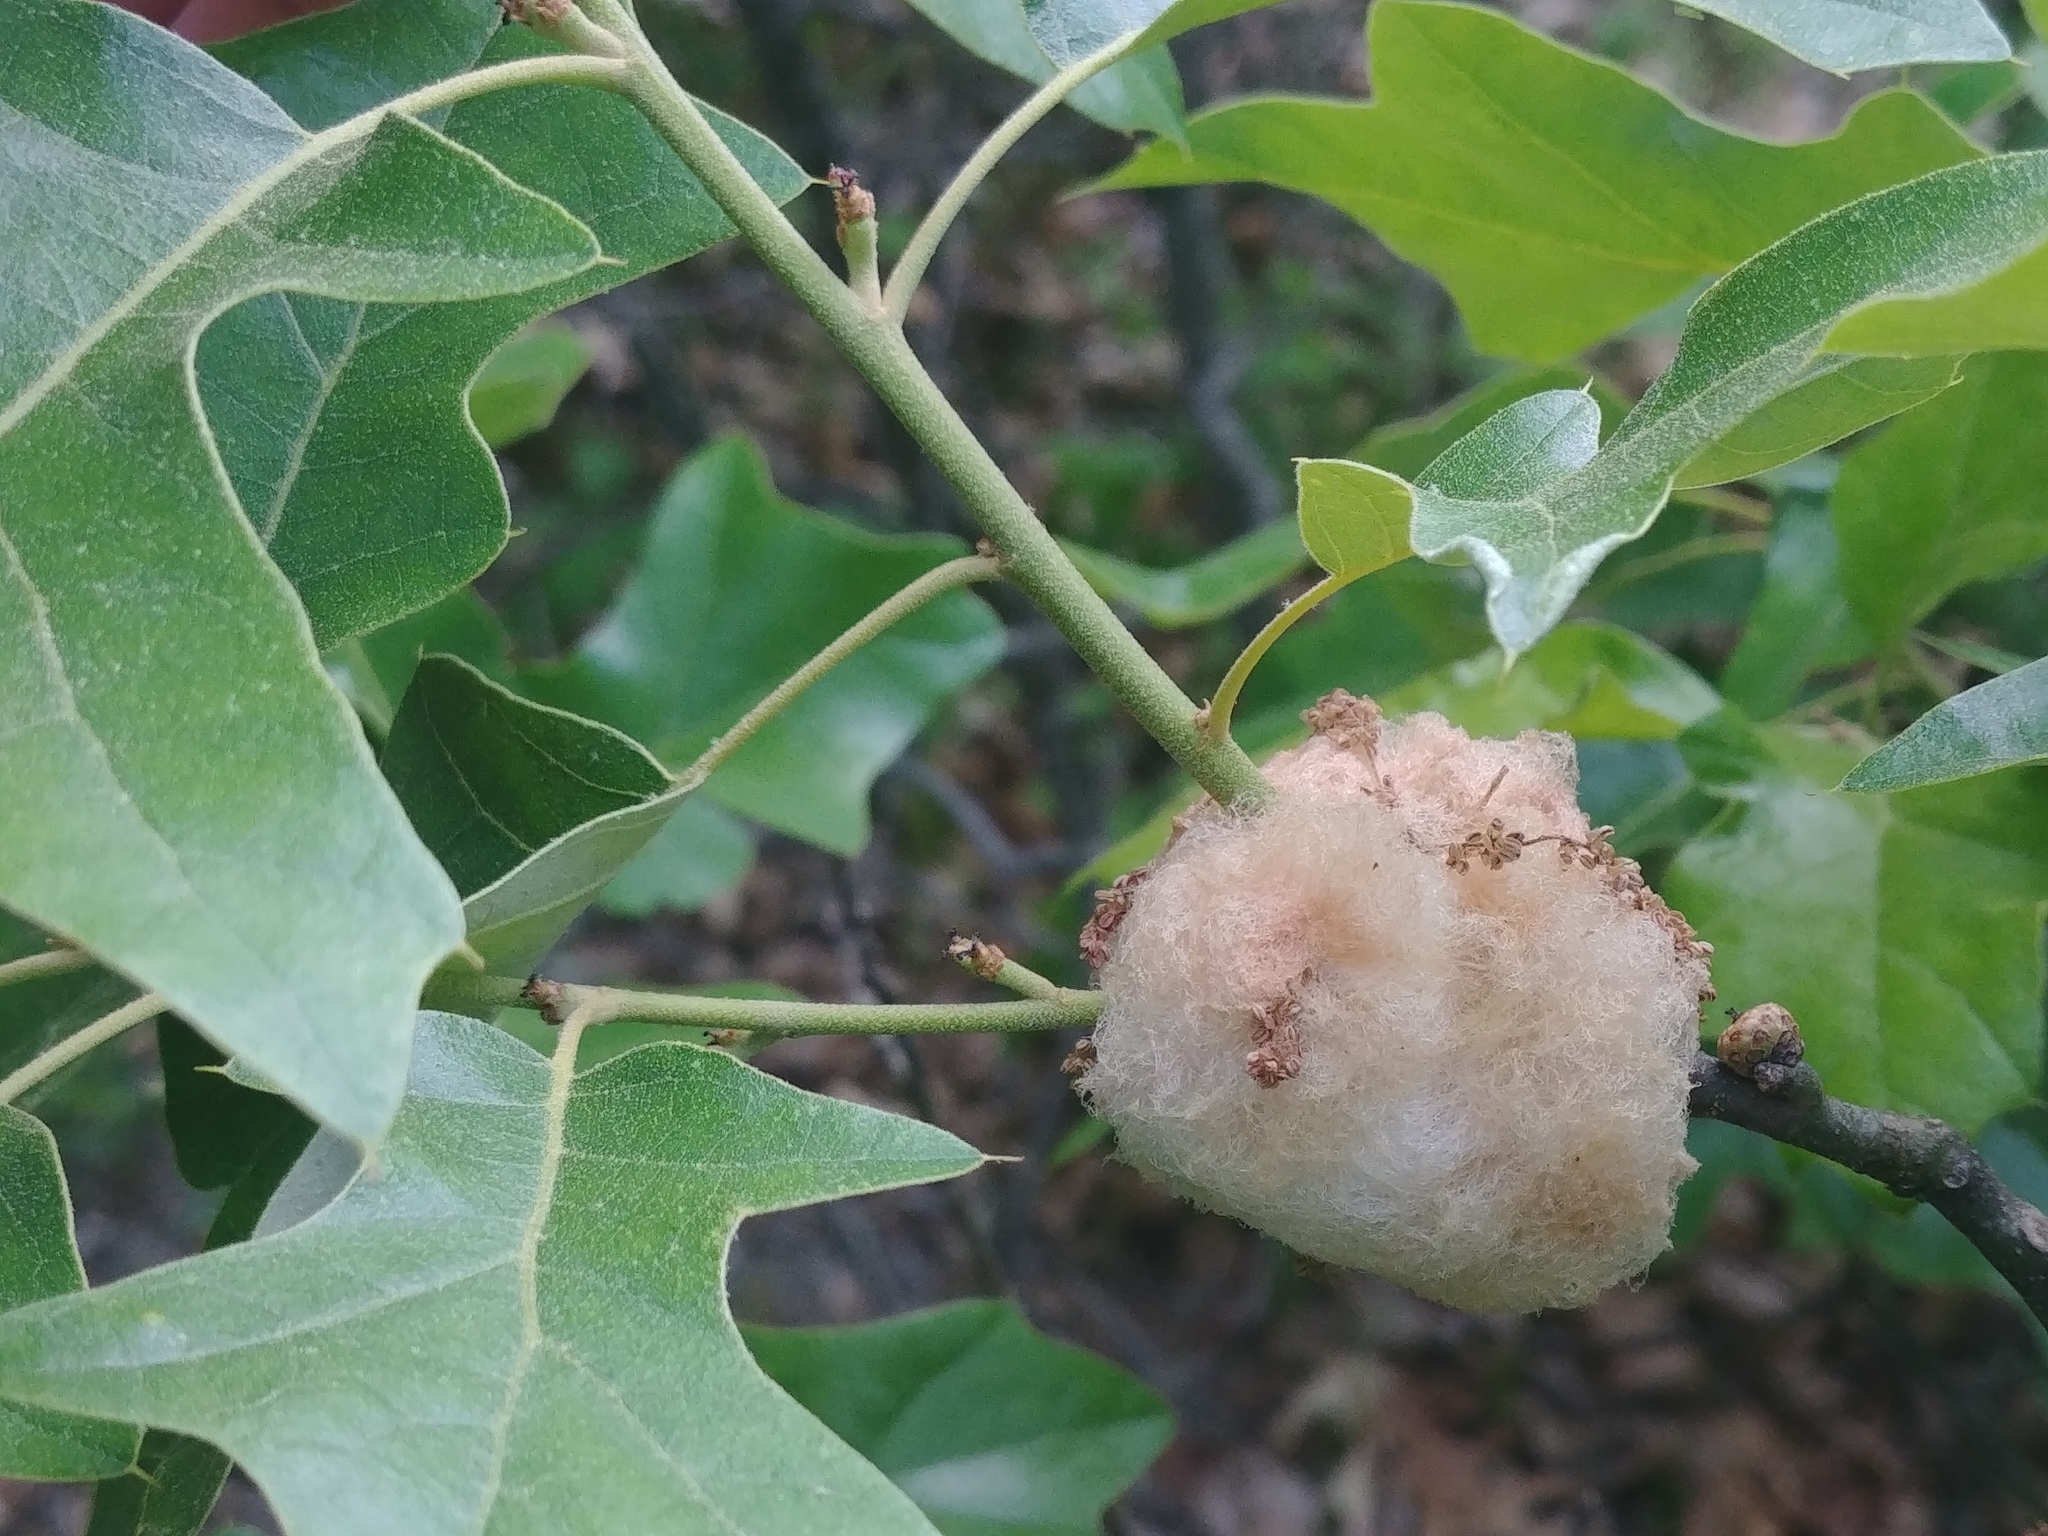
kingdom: Animalia
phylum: Arthropoda
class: Insecta
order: Hymenoptera
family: Cynipidae
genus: Callirhytis
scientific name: Callirhytis
